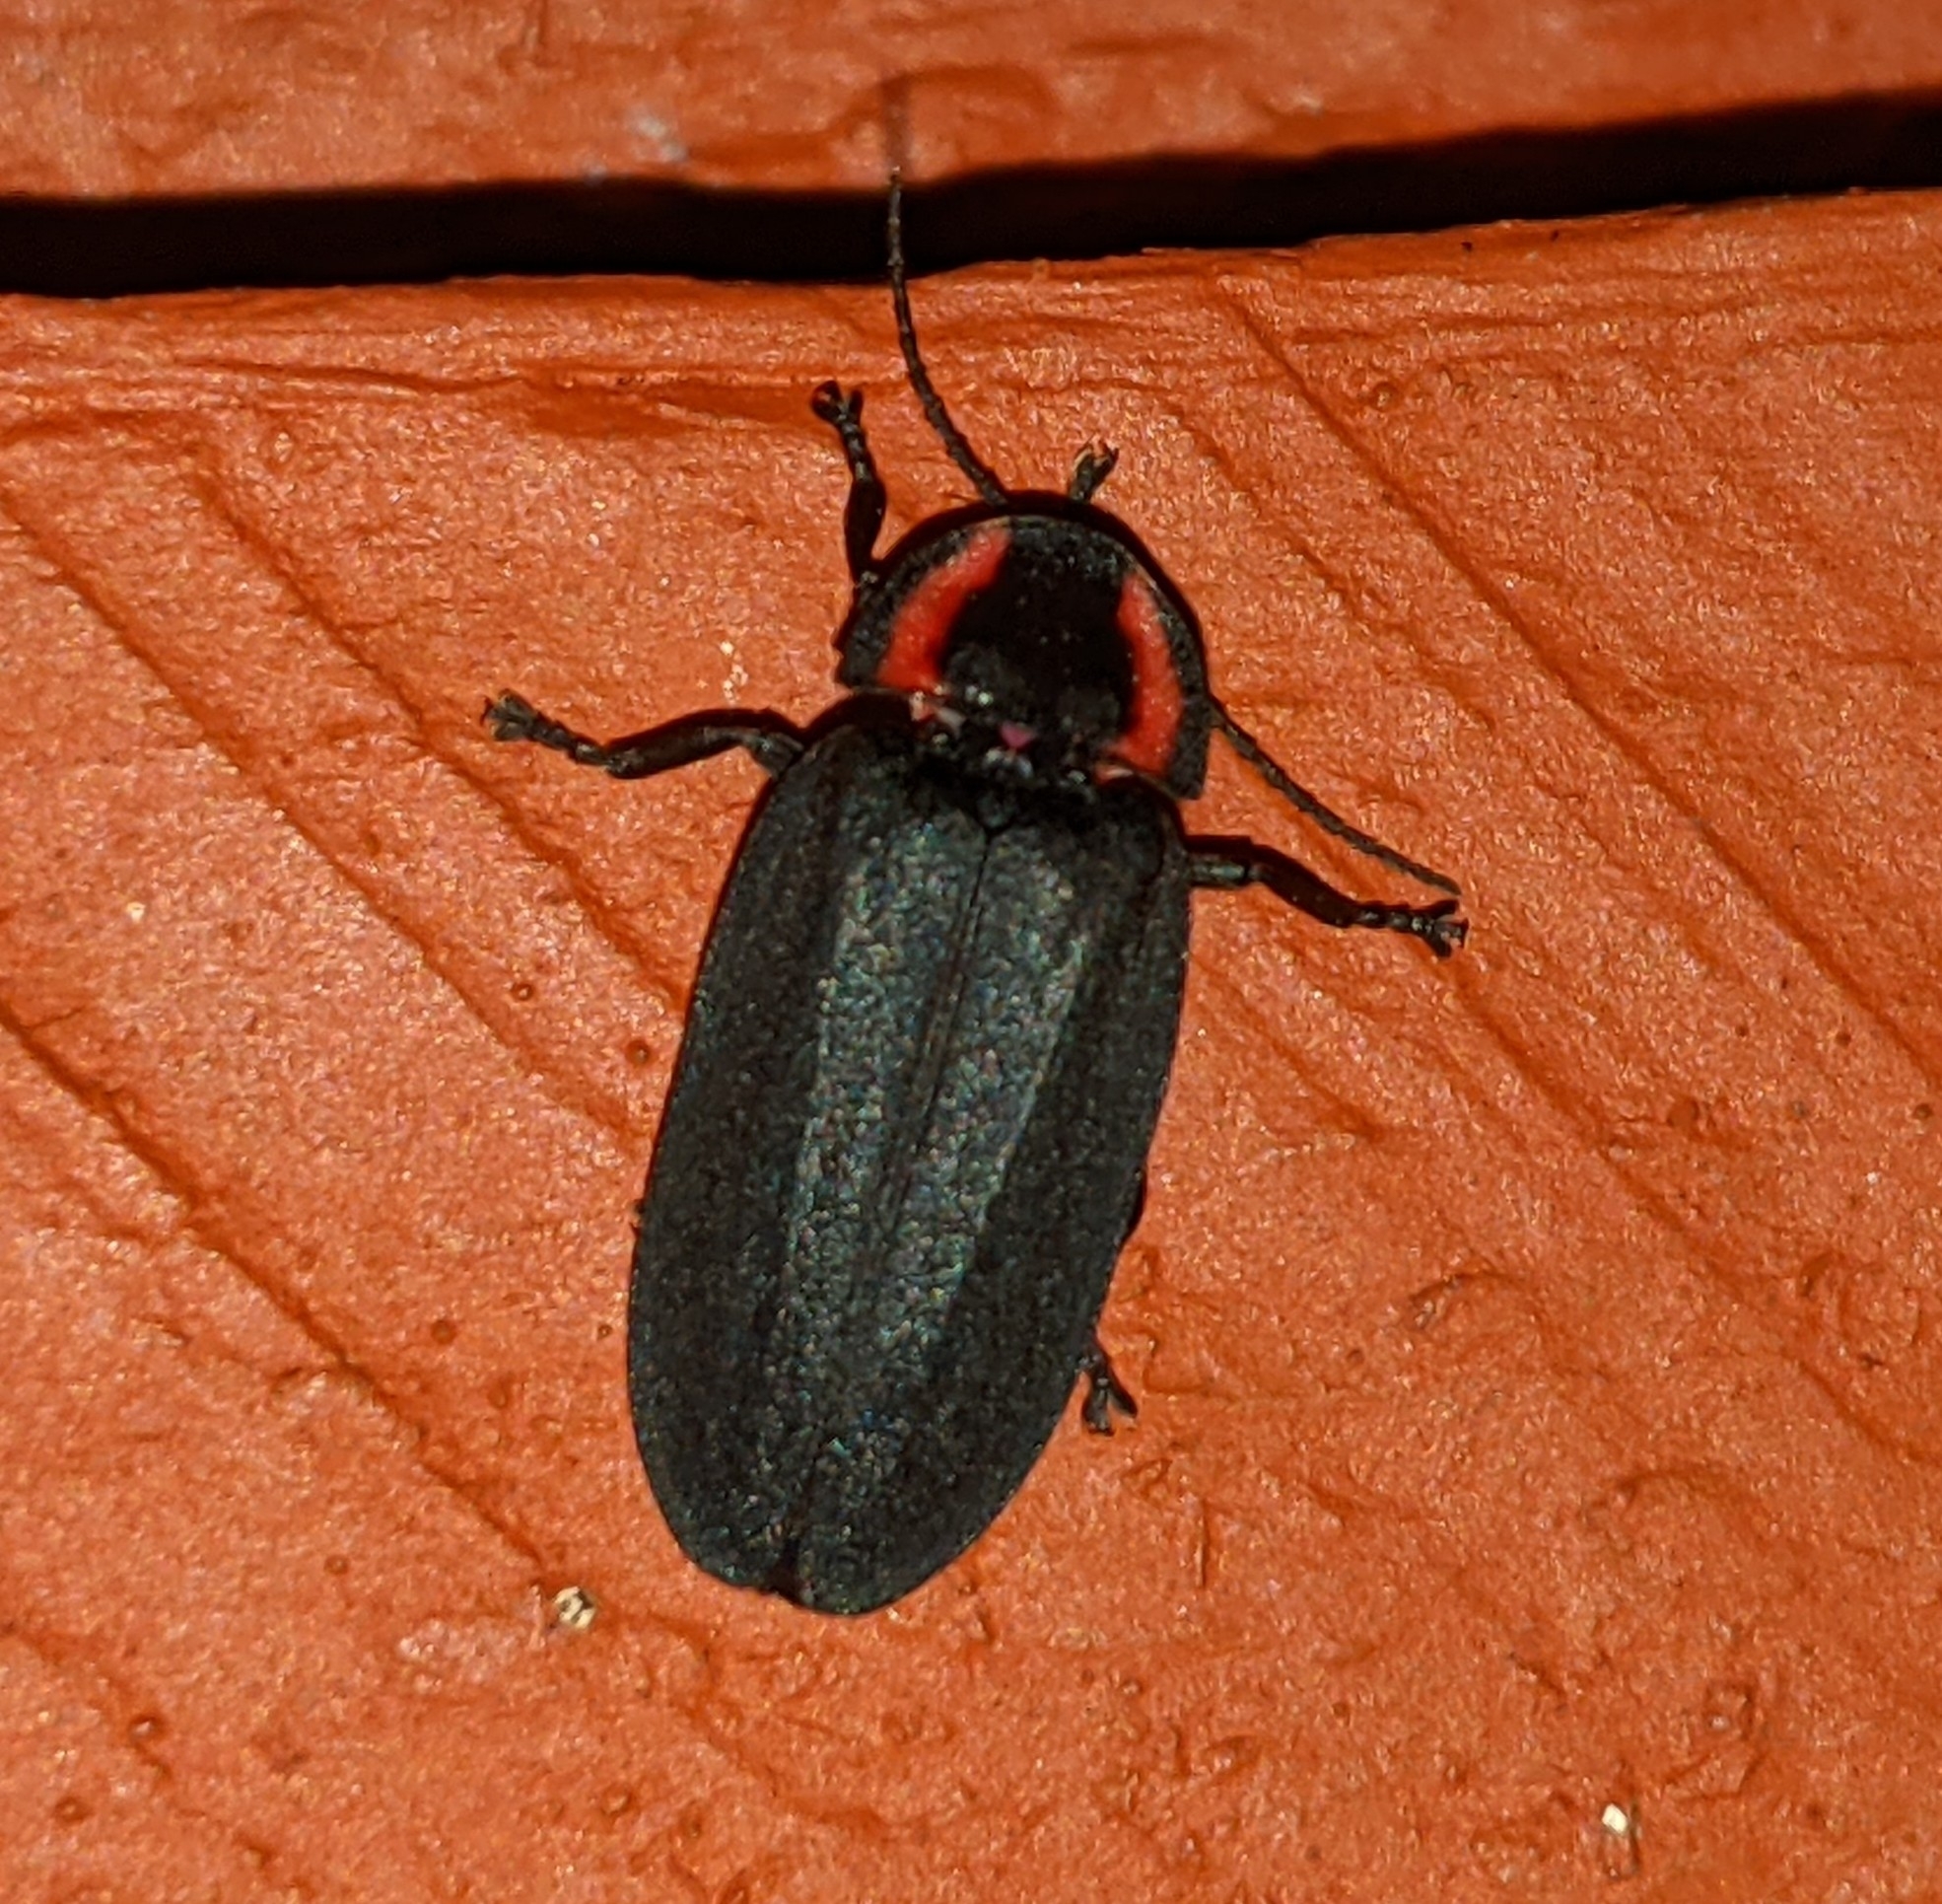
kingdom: Animalia
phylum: Arthropoda
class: Insecta
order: Coleoptera
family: Lampyridae
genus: Photinus
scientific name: Photinus corrusca
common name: Winter firefly
